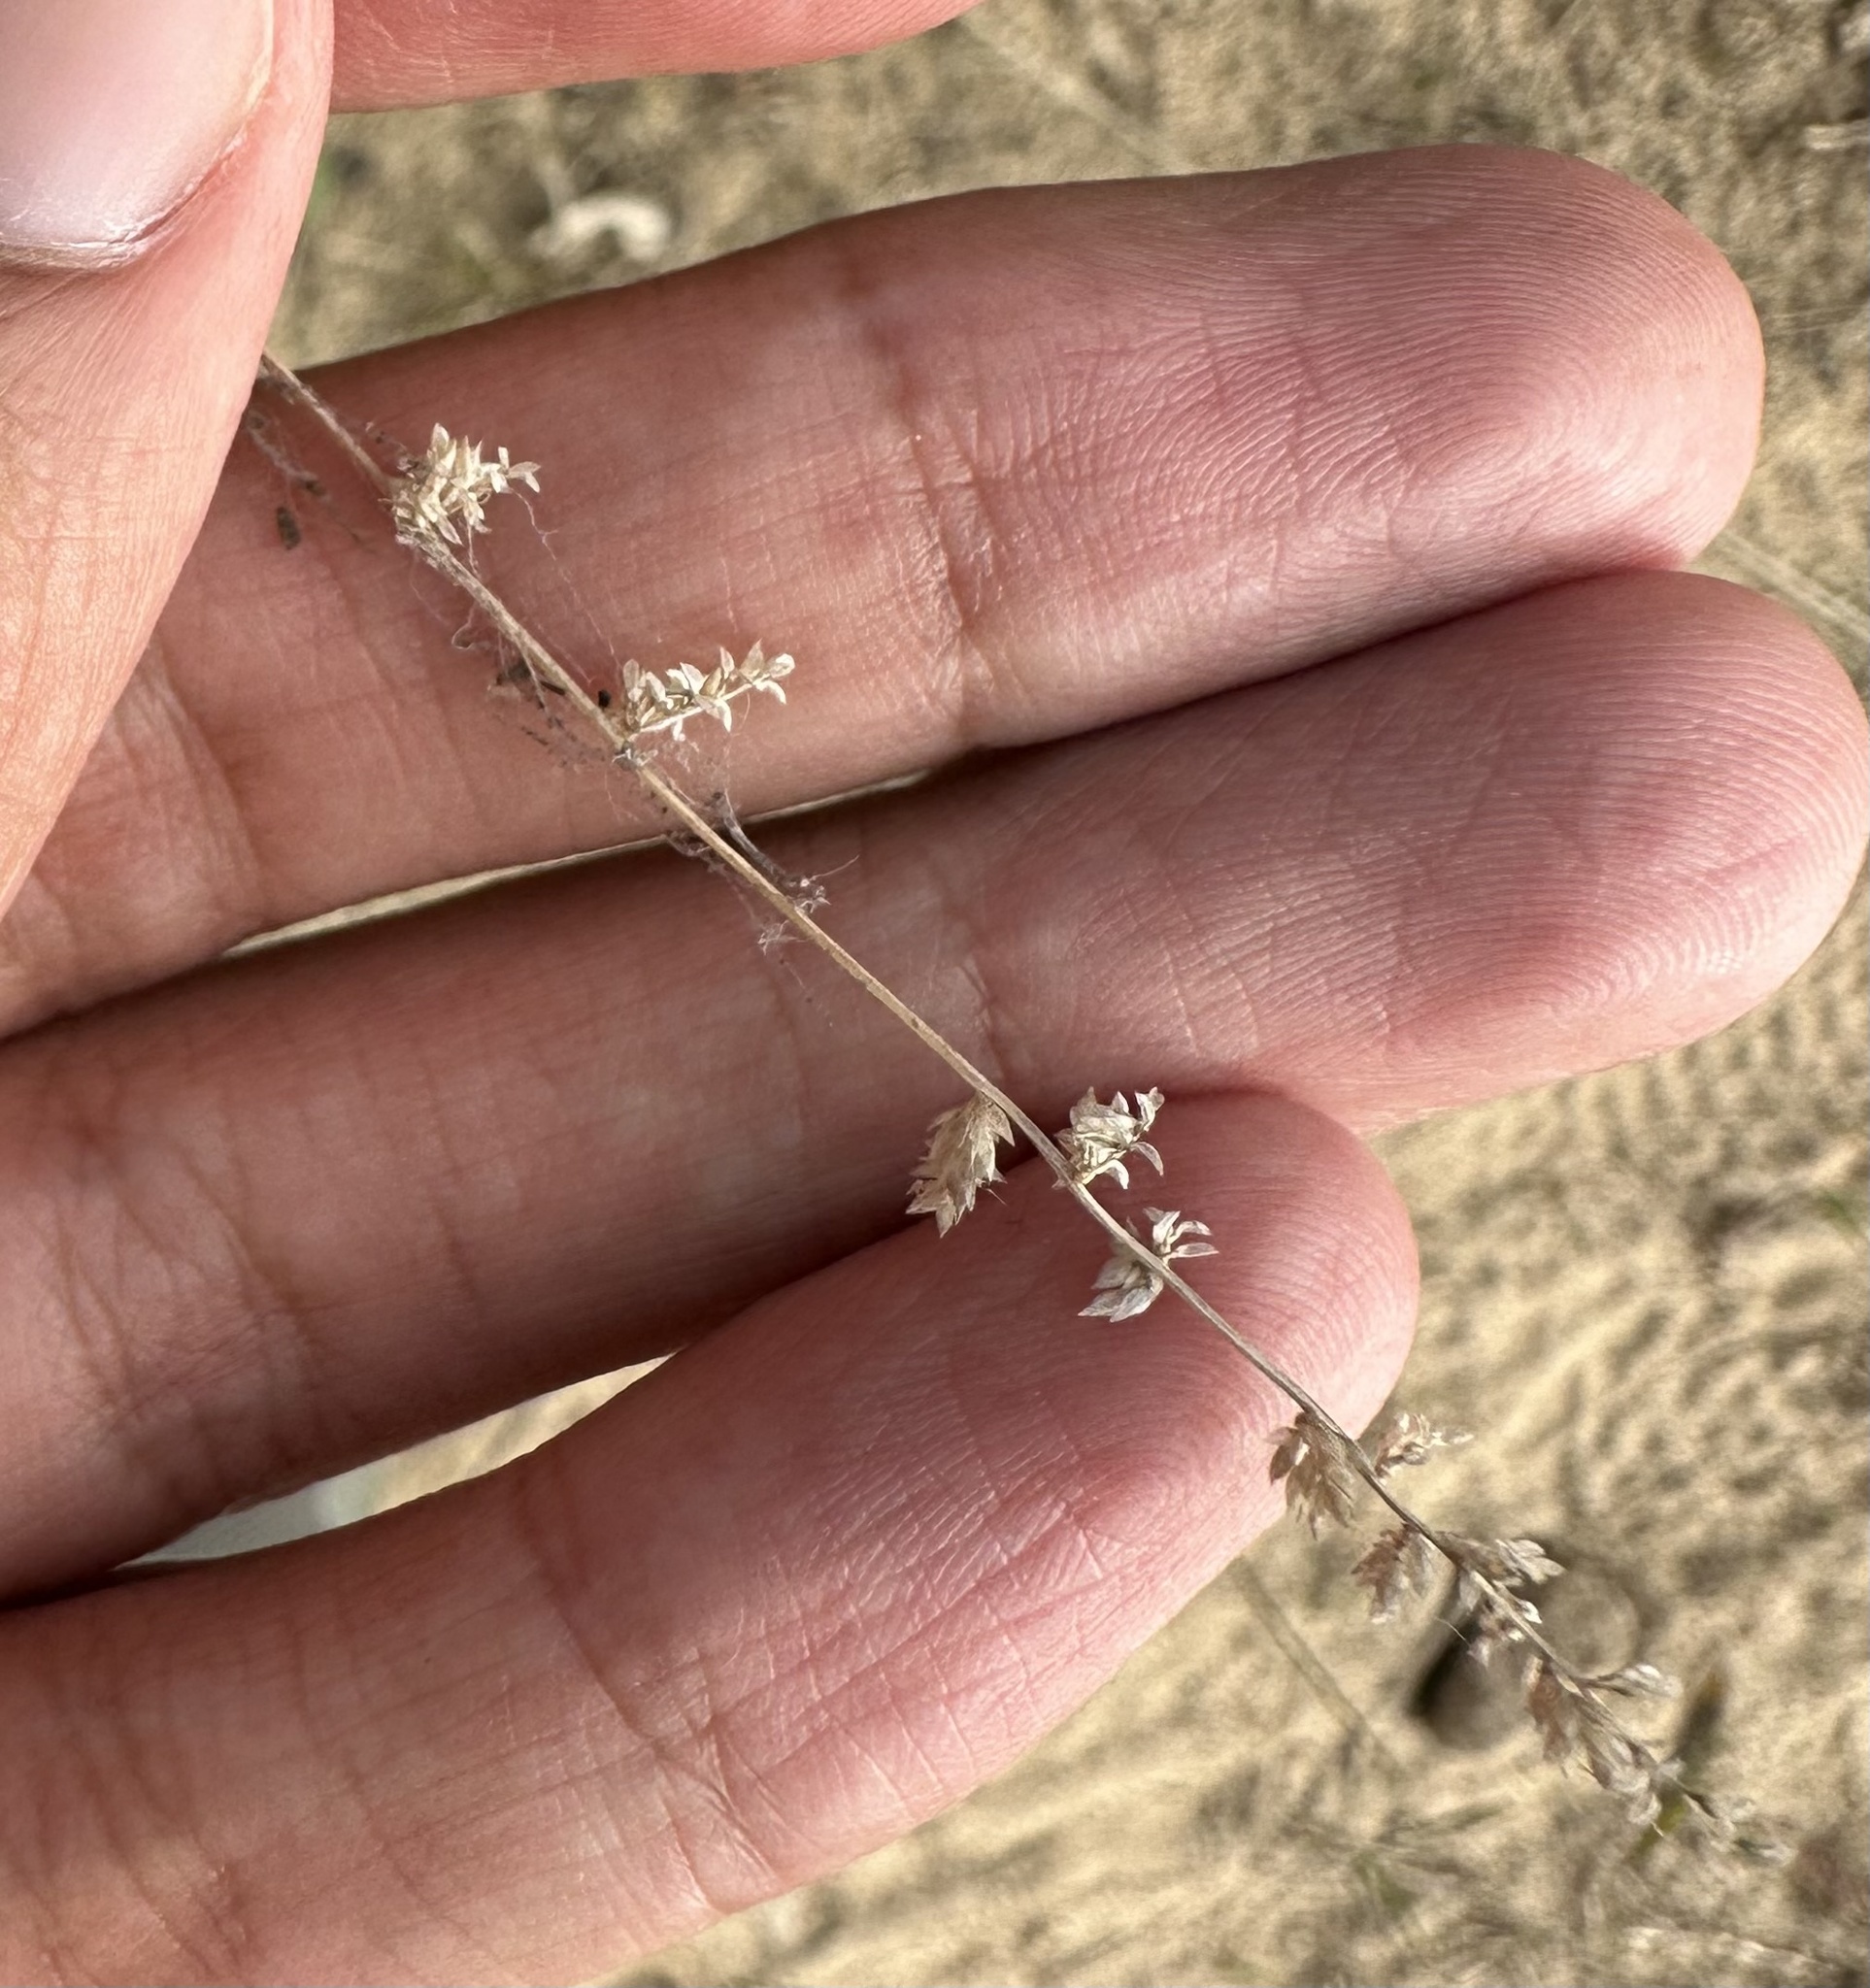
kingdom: Plantae
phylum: Tracheophyta
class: Liliopsida
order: Poales
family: Poaceae
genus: Eragrostis
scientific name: Eragrostis
